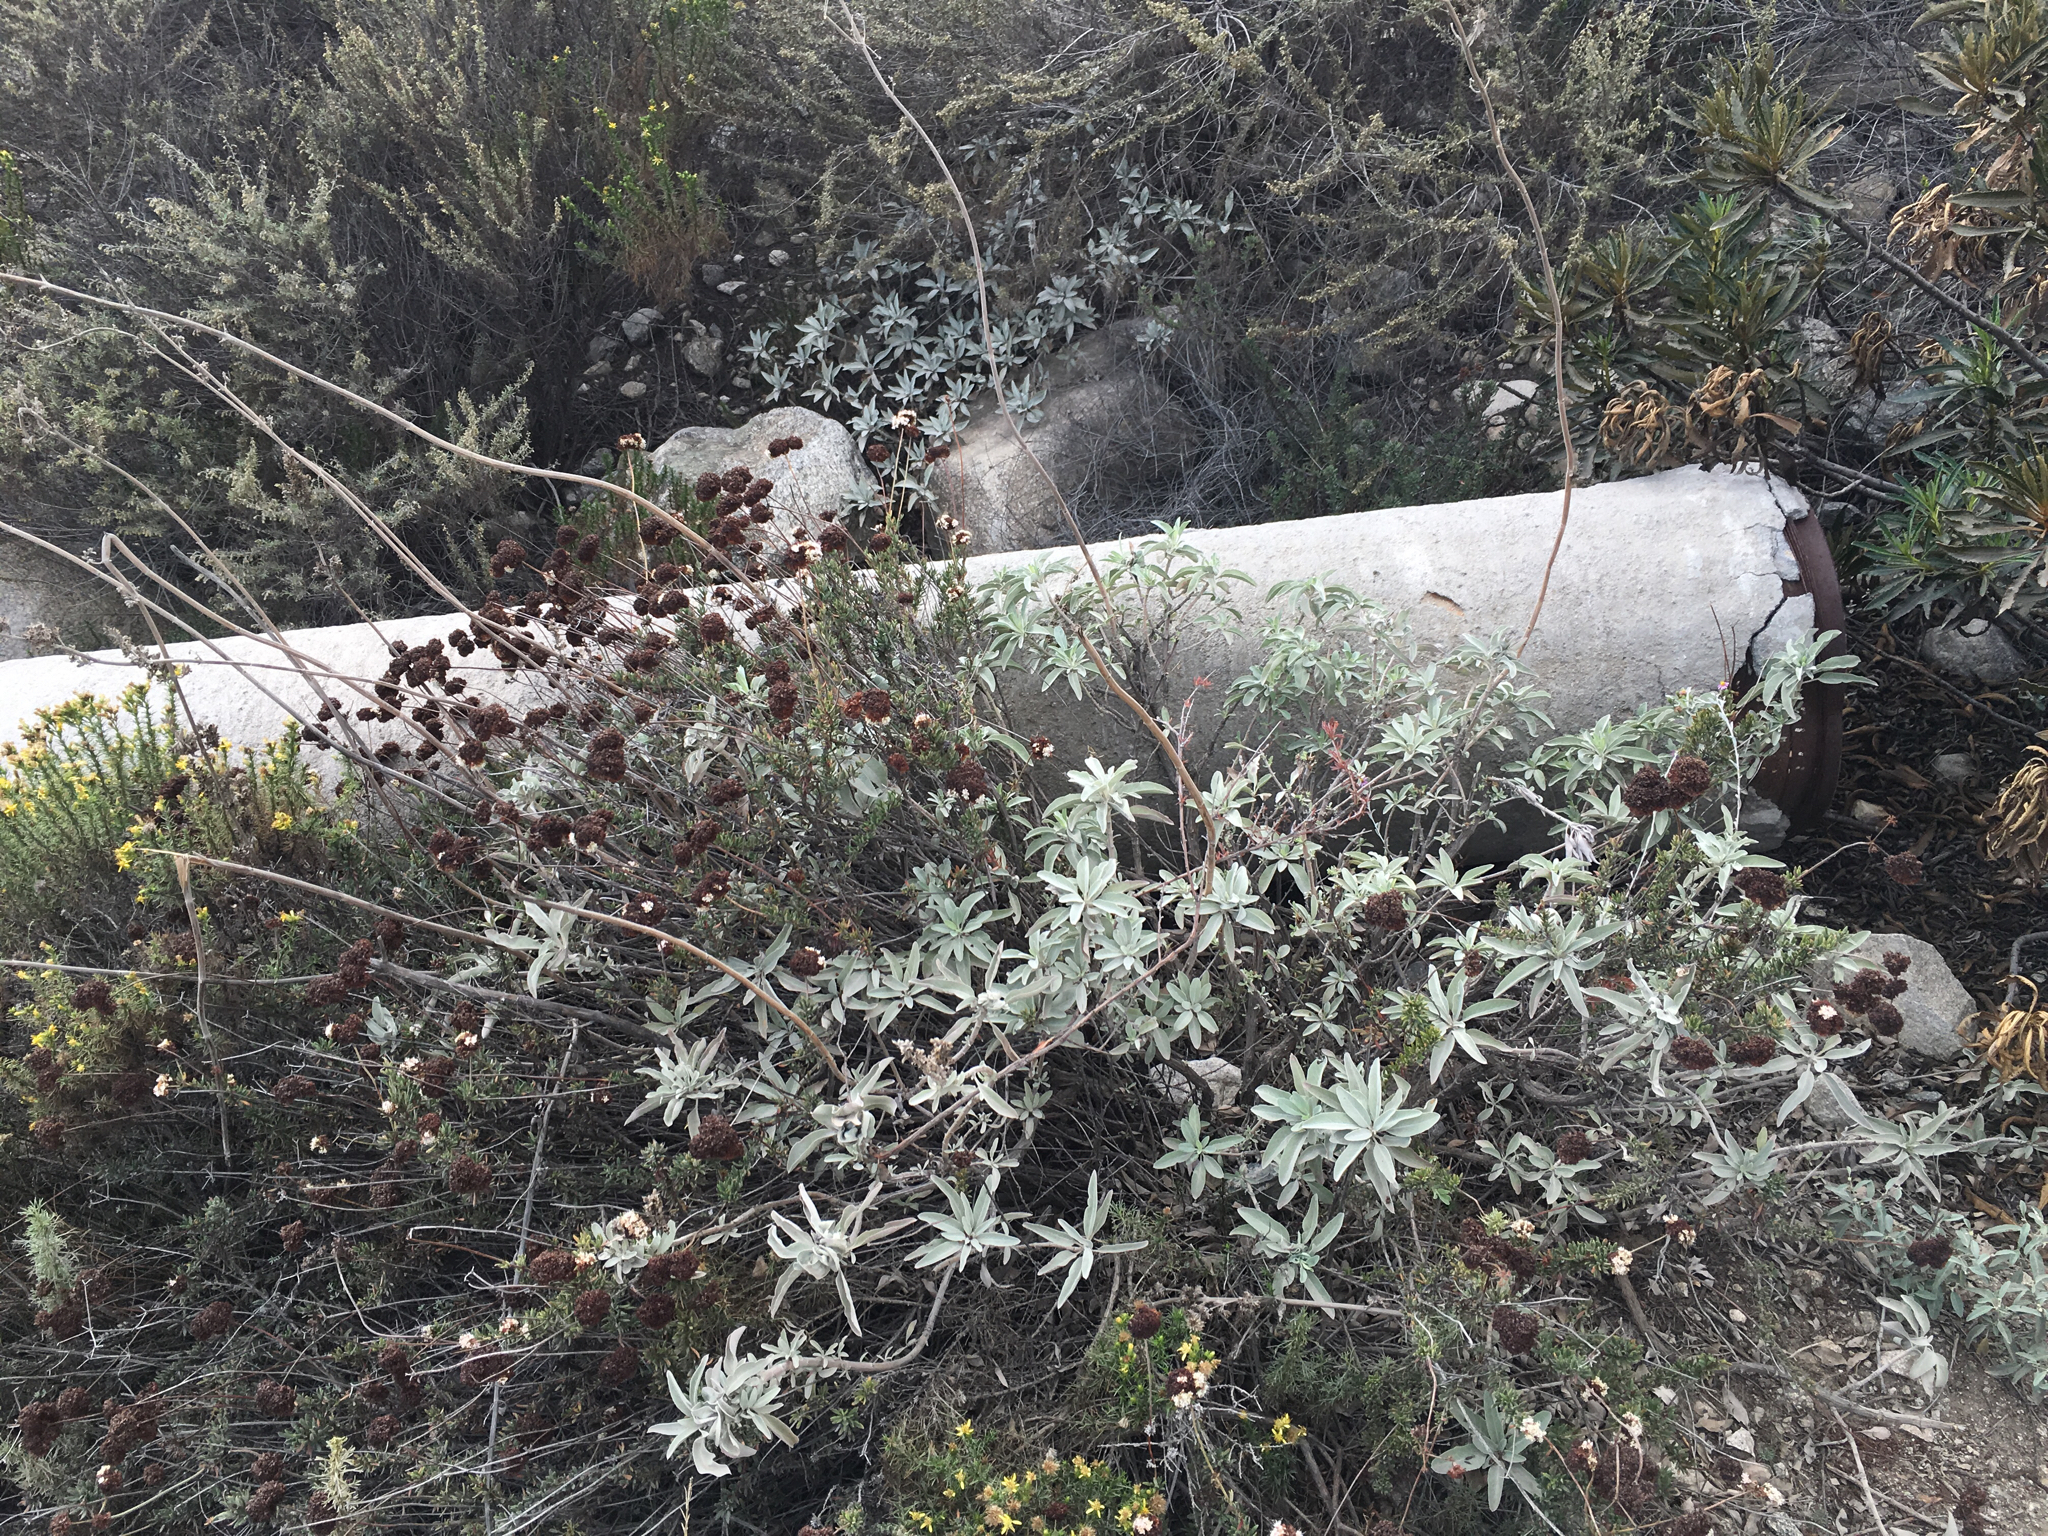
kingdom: Plantae
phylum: Tracheophyta
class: Magnoliopsida
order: Lamiales
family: Lamiaceae
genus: Salvia
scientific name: Salvia apiana
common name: White sage
